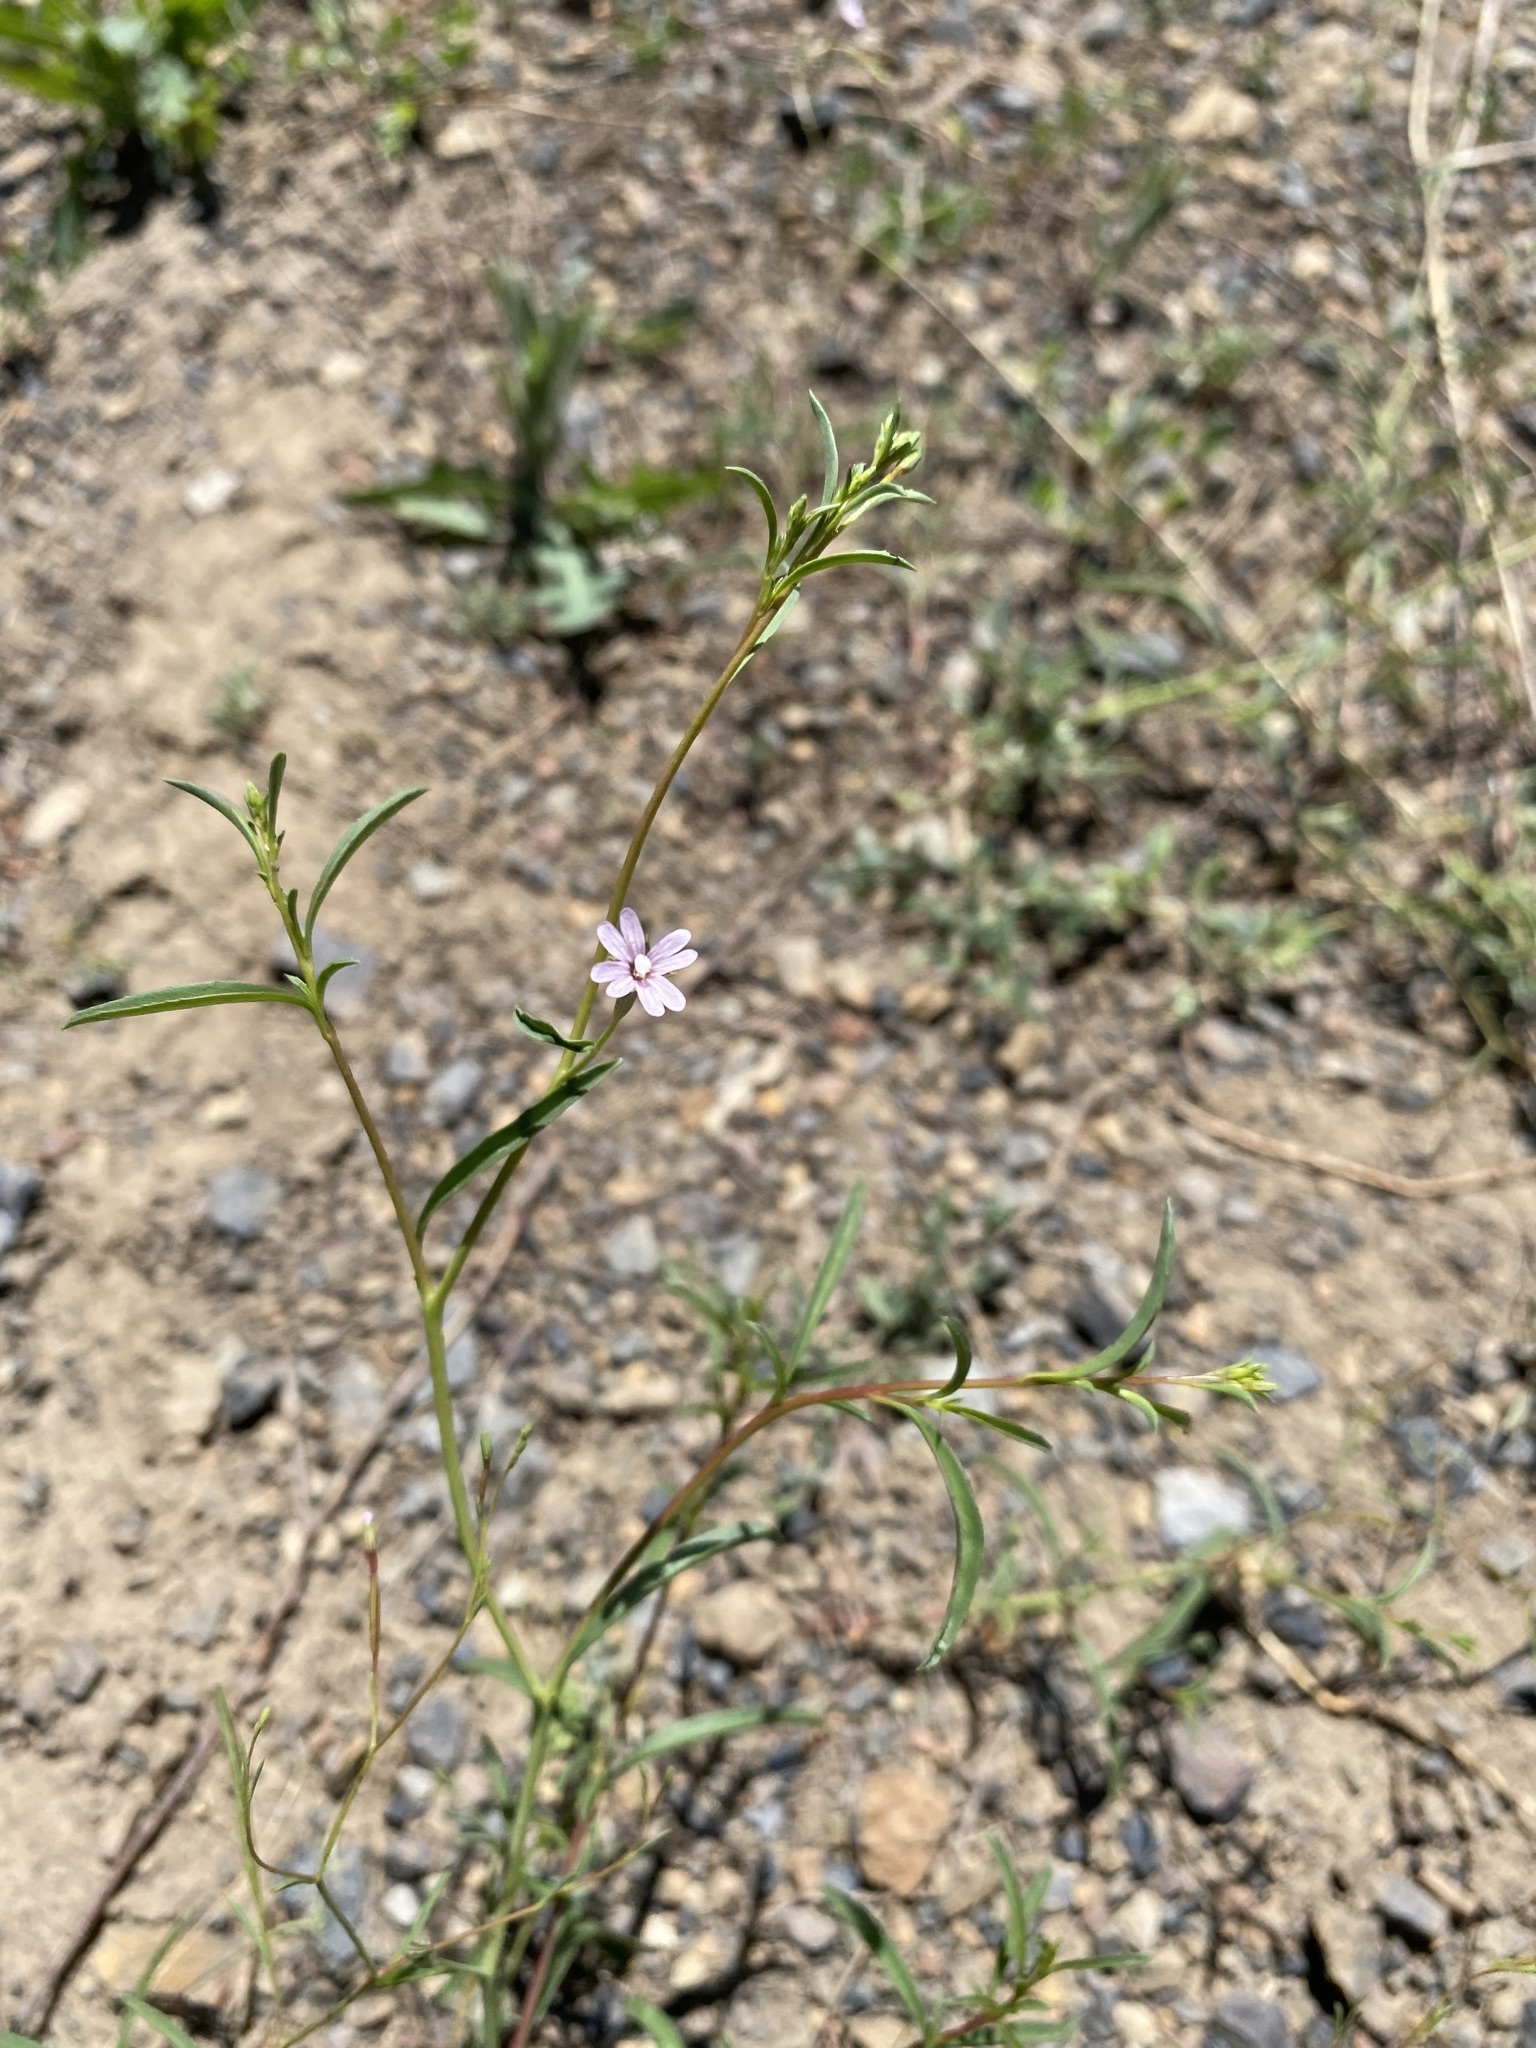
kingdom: Plantae
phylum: Tracheophyta
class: Magnoliopsida
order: Myrtales
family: Onagraceae
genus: Epilobium
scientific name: Epilobium brachycarpum
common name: Annual willowherb
